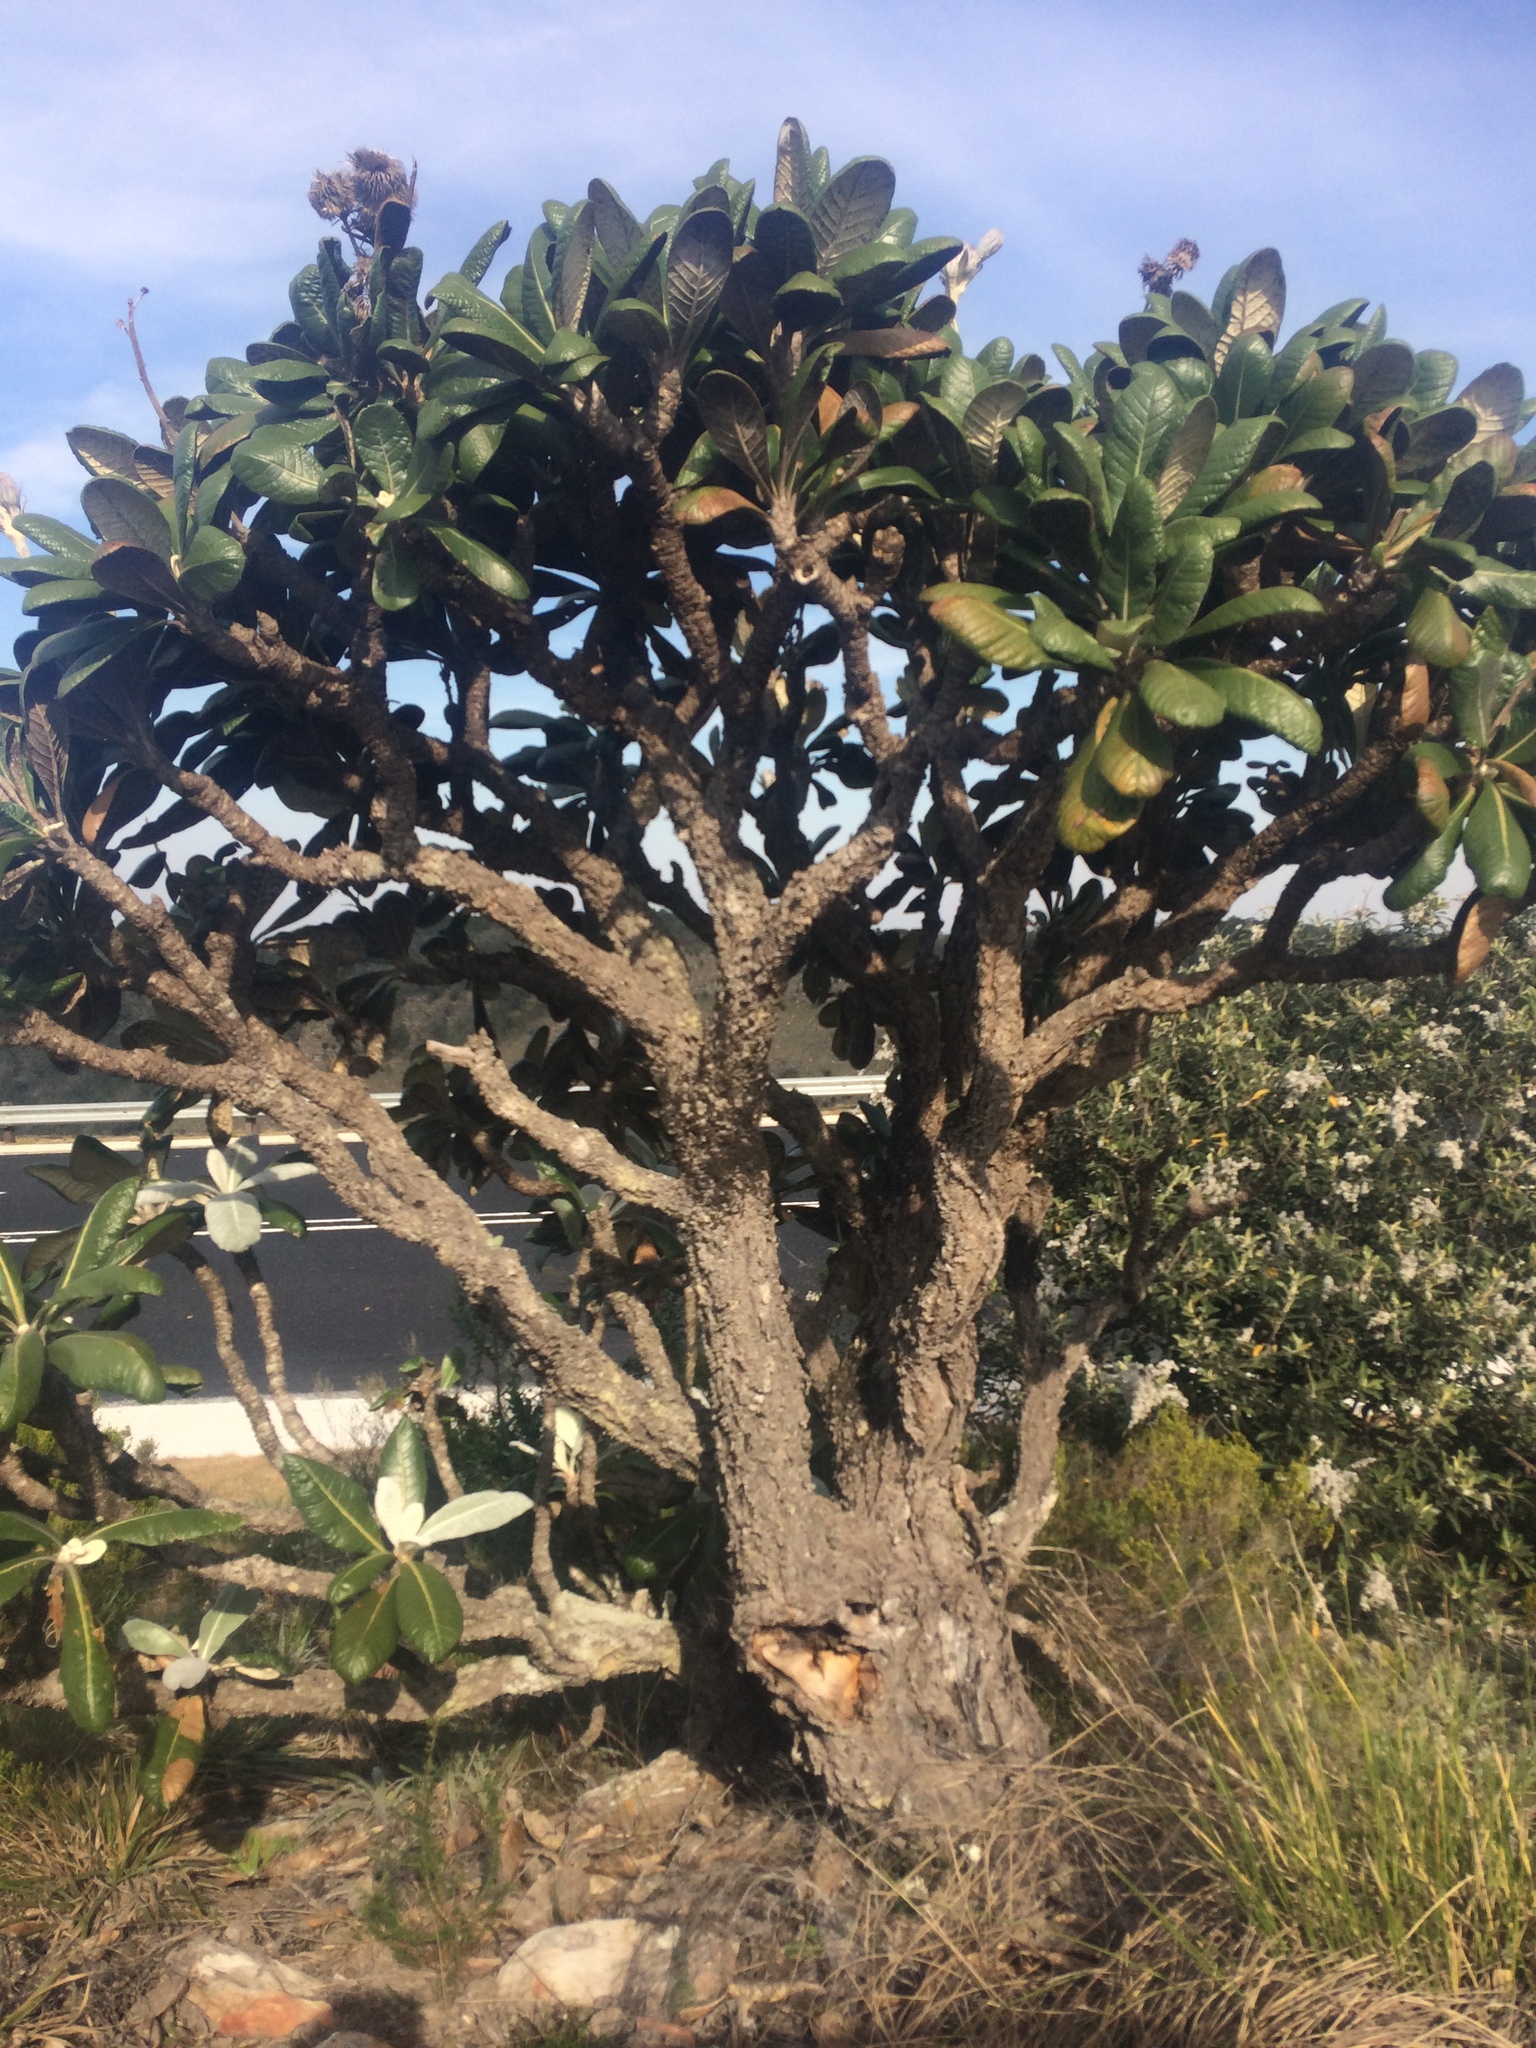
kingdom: Plantae
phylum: Tracheophyta
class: Magnoliopsida
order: Asterales
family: Asteraceae
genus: Oldenburgia
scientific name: Oldenburgia grandis
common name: Suurberg cushion bush
